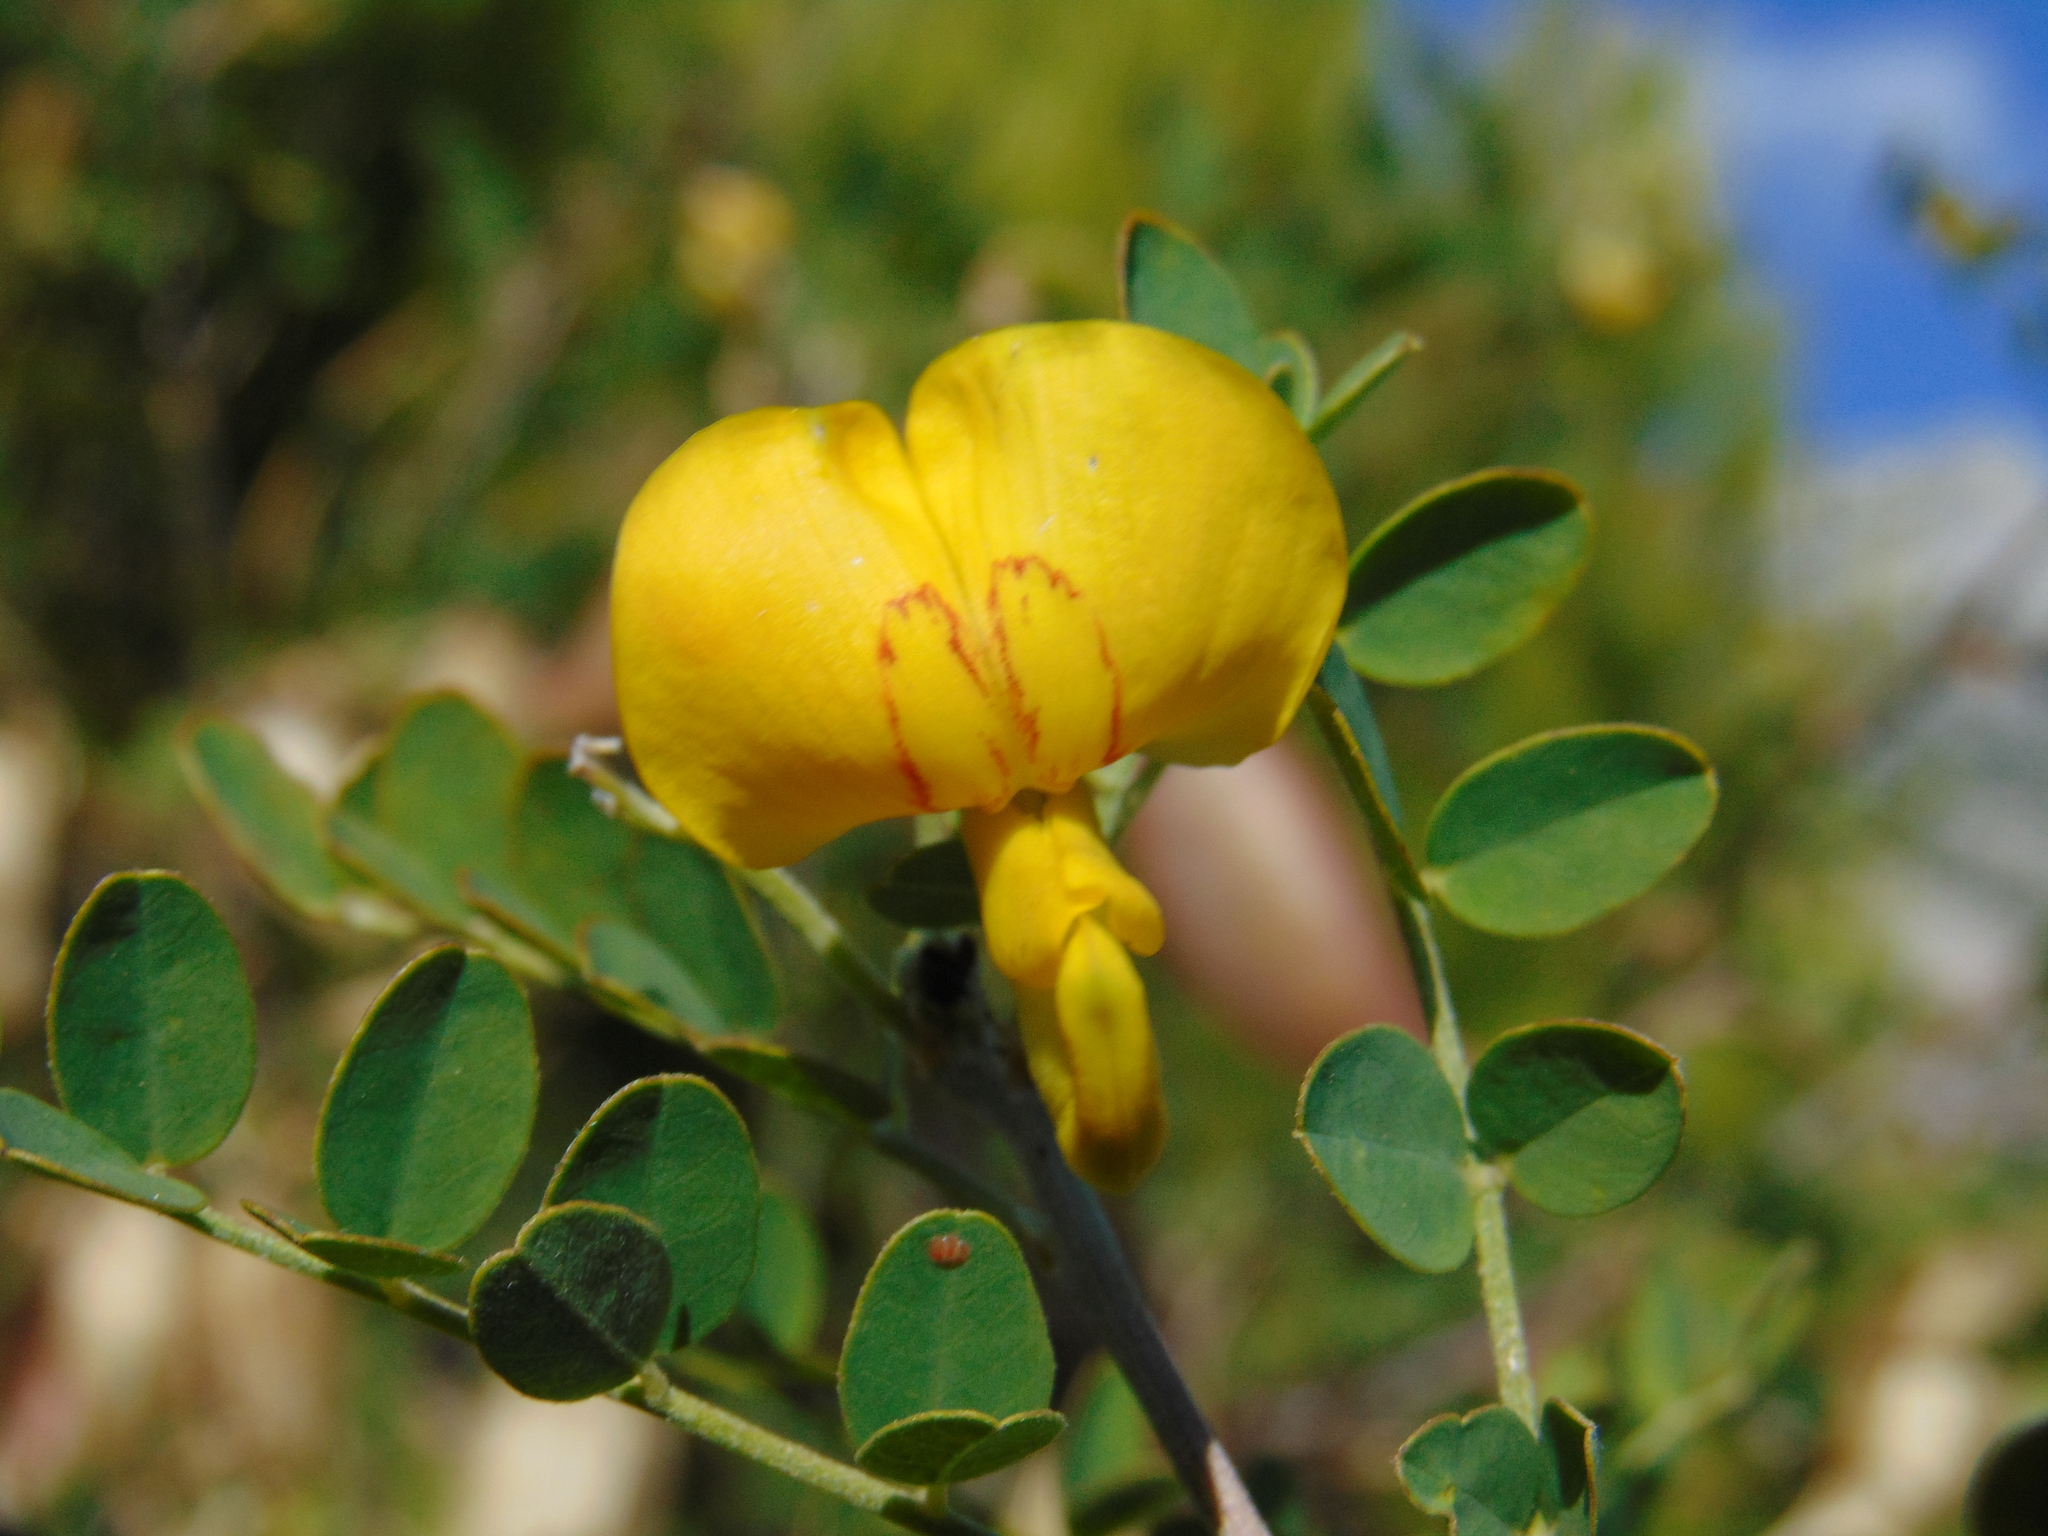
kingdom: Plantae
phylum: Tracheophyta
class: Magnoliopsida
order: Fabales
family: Fabaceae
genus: Colutea
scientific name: Colutea arborescens
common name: Bladder-senna
